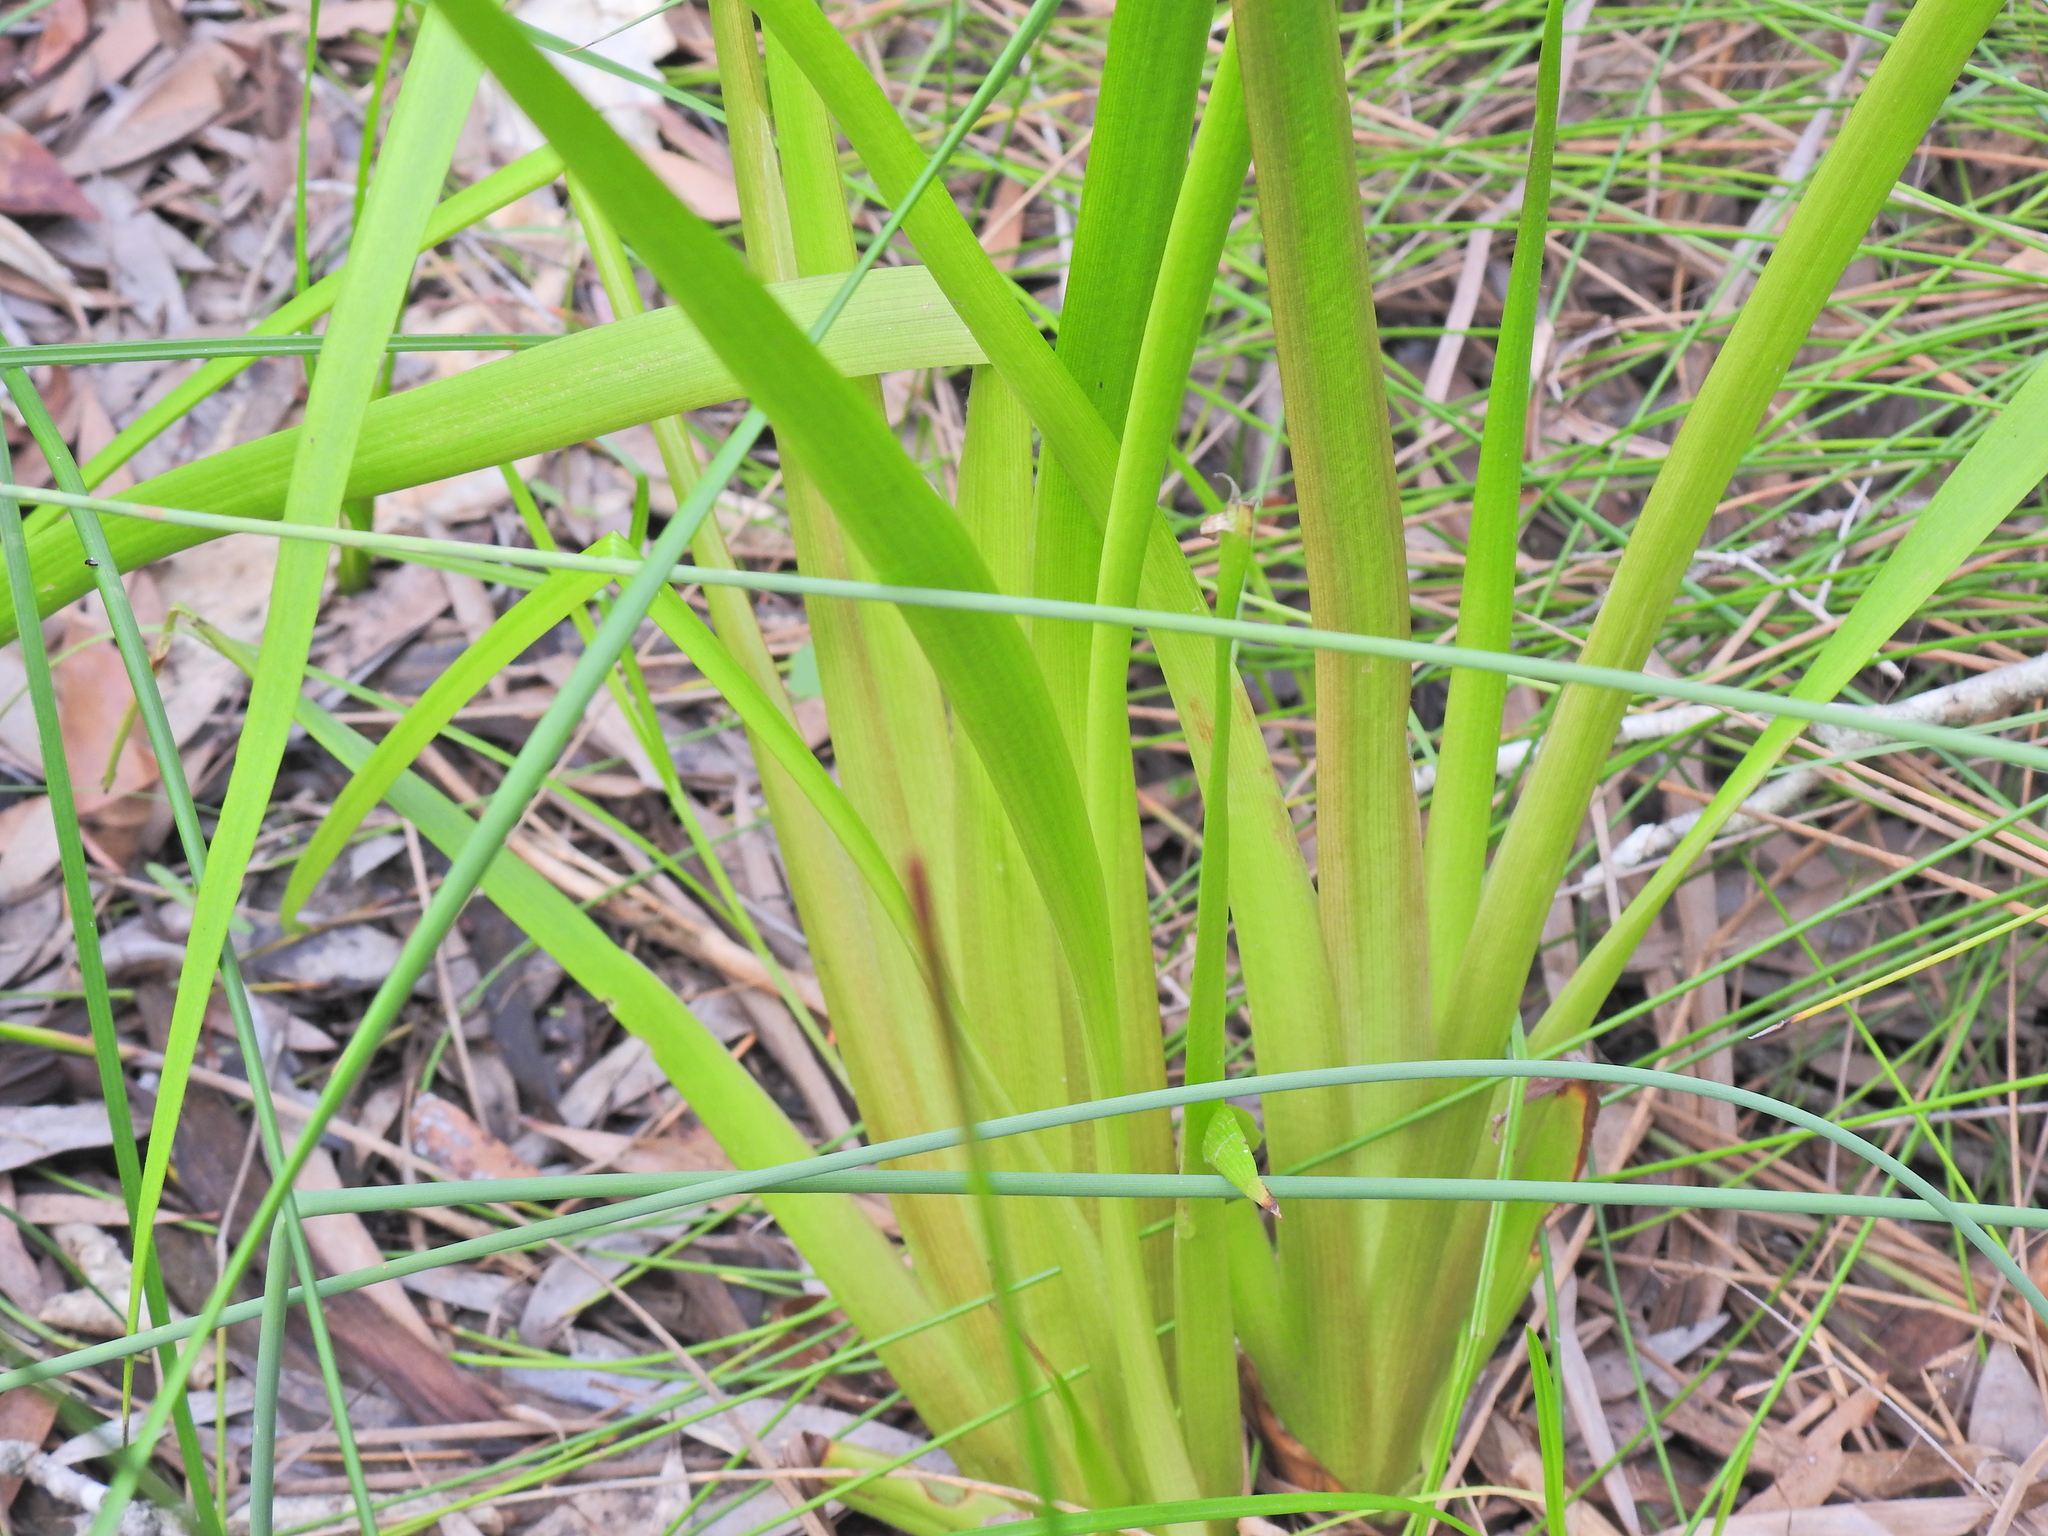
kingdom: Plantae
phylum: Tracheophyta
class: Liliopsida
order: Commelinales
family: Philydraceae
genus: Philydrum
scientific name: Philydrum lanuginosum
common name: Woolly frog's mouth
